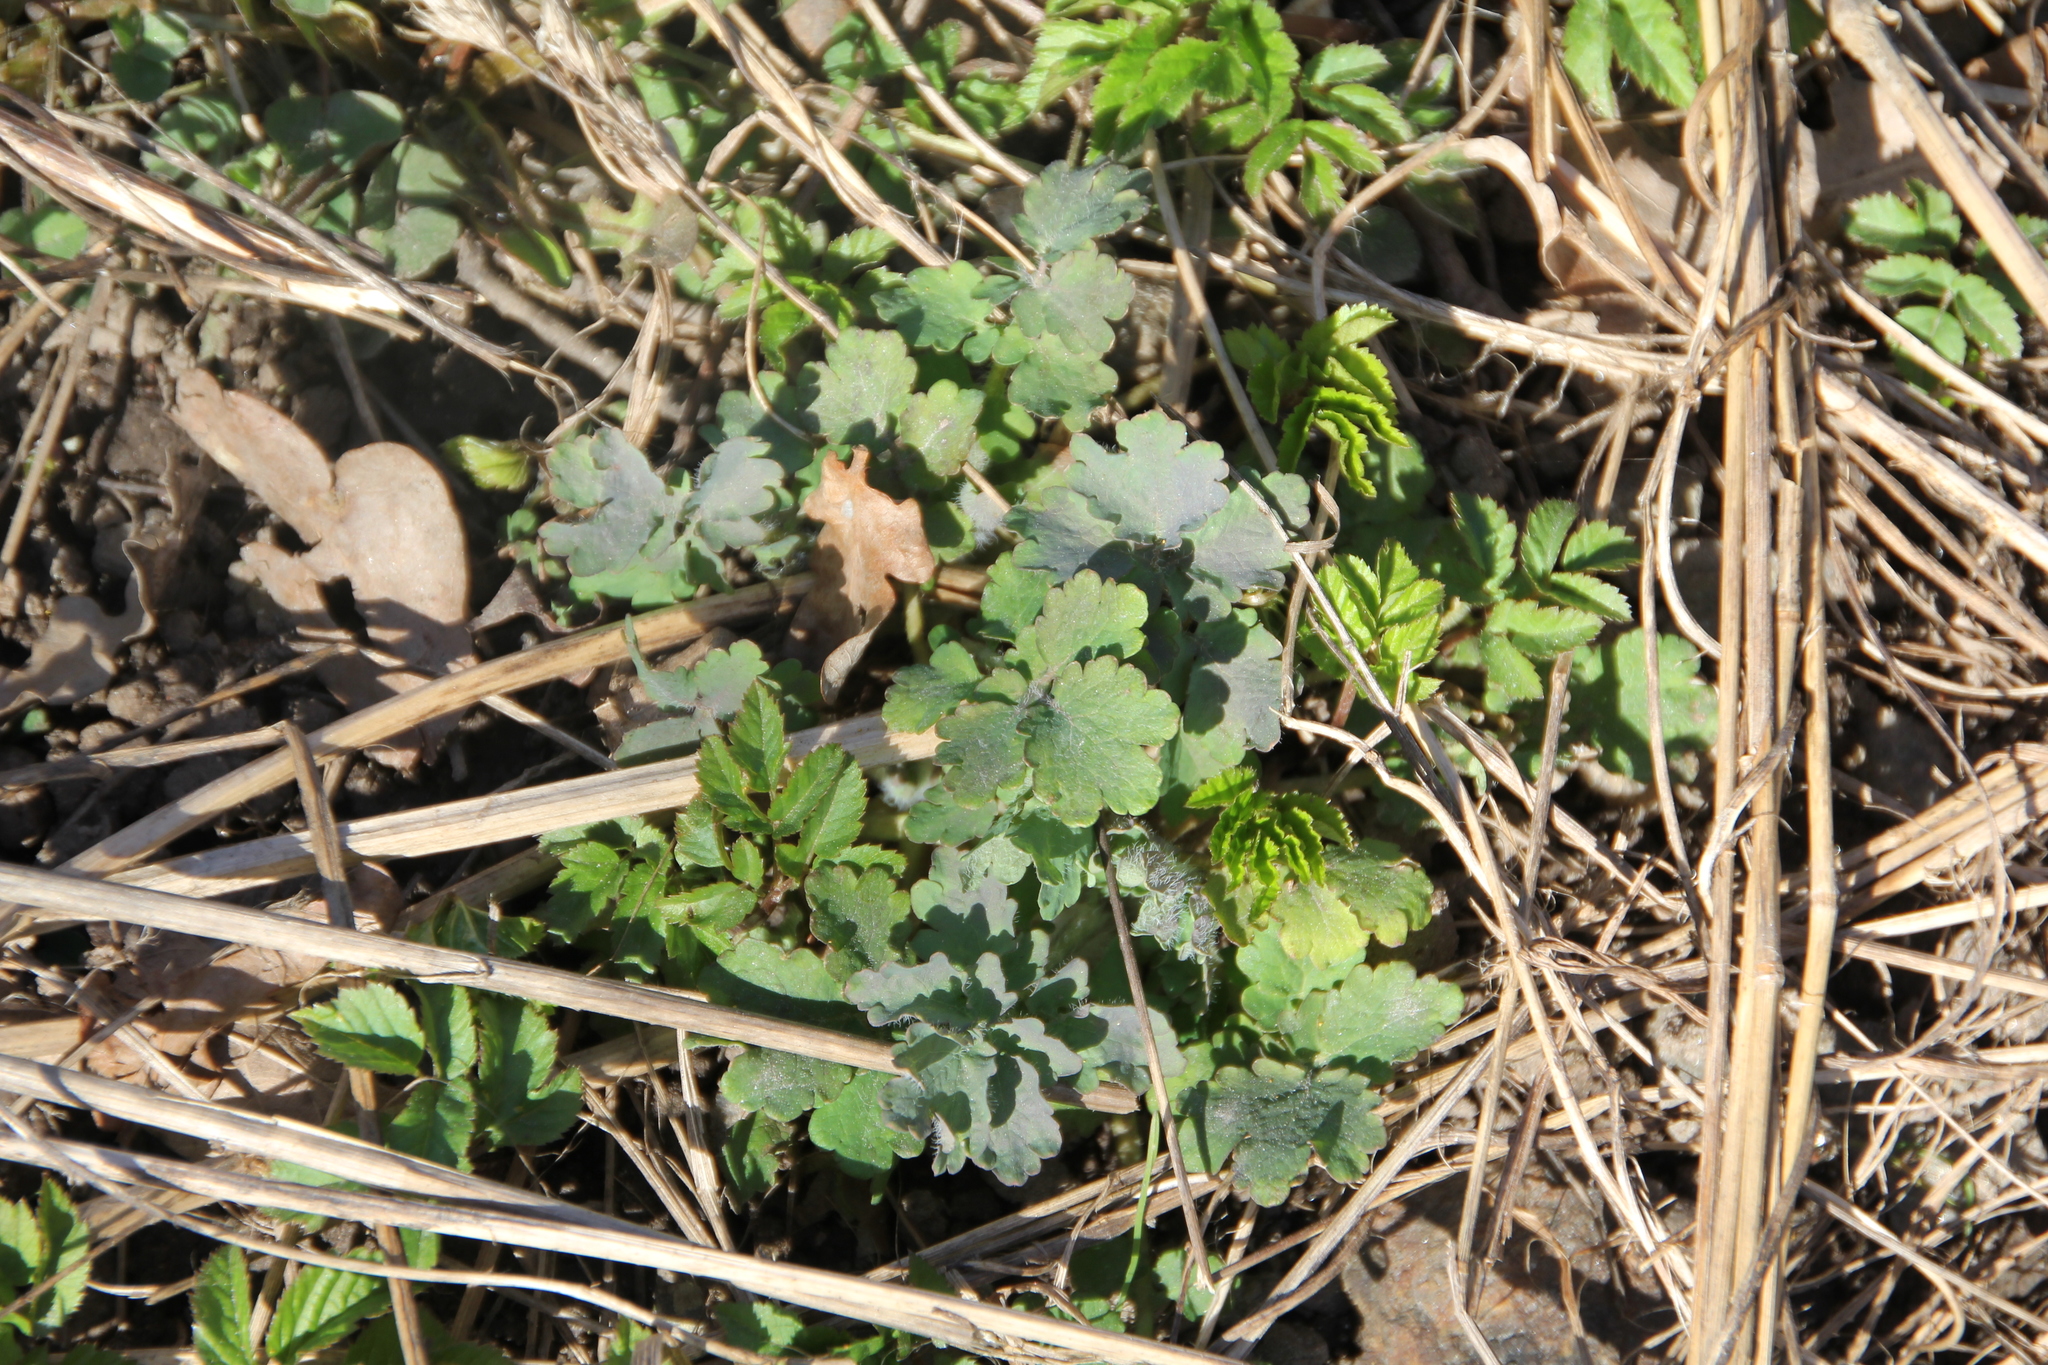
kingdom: Plantae
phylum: Tracheophyta
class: Magnoliopsida
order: Ranunculales
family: Papaveraceae
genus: Chelidonium
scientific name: Chelidonium majus
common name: Greater celandine
